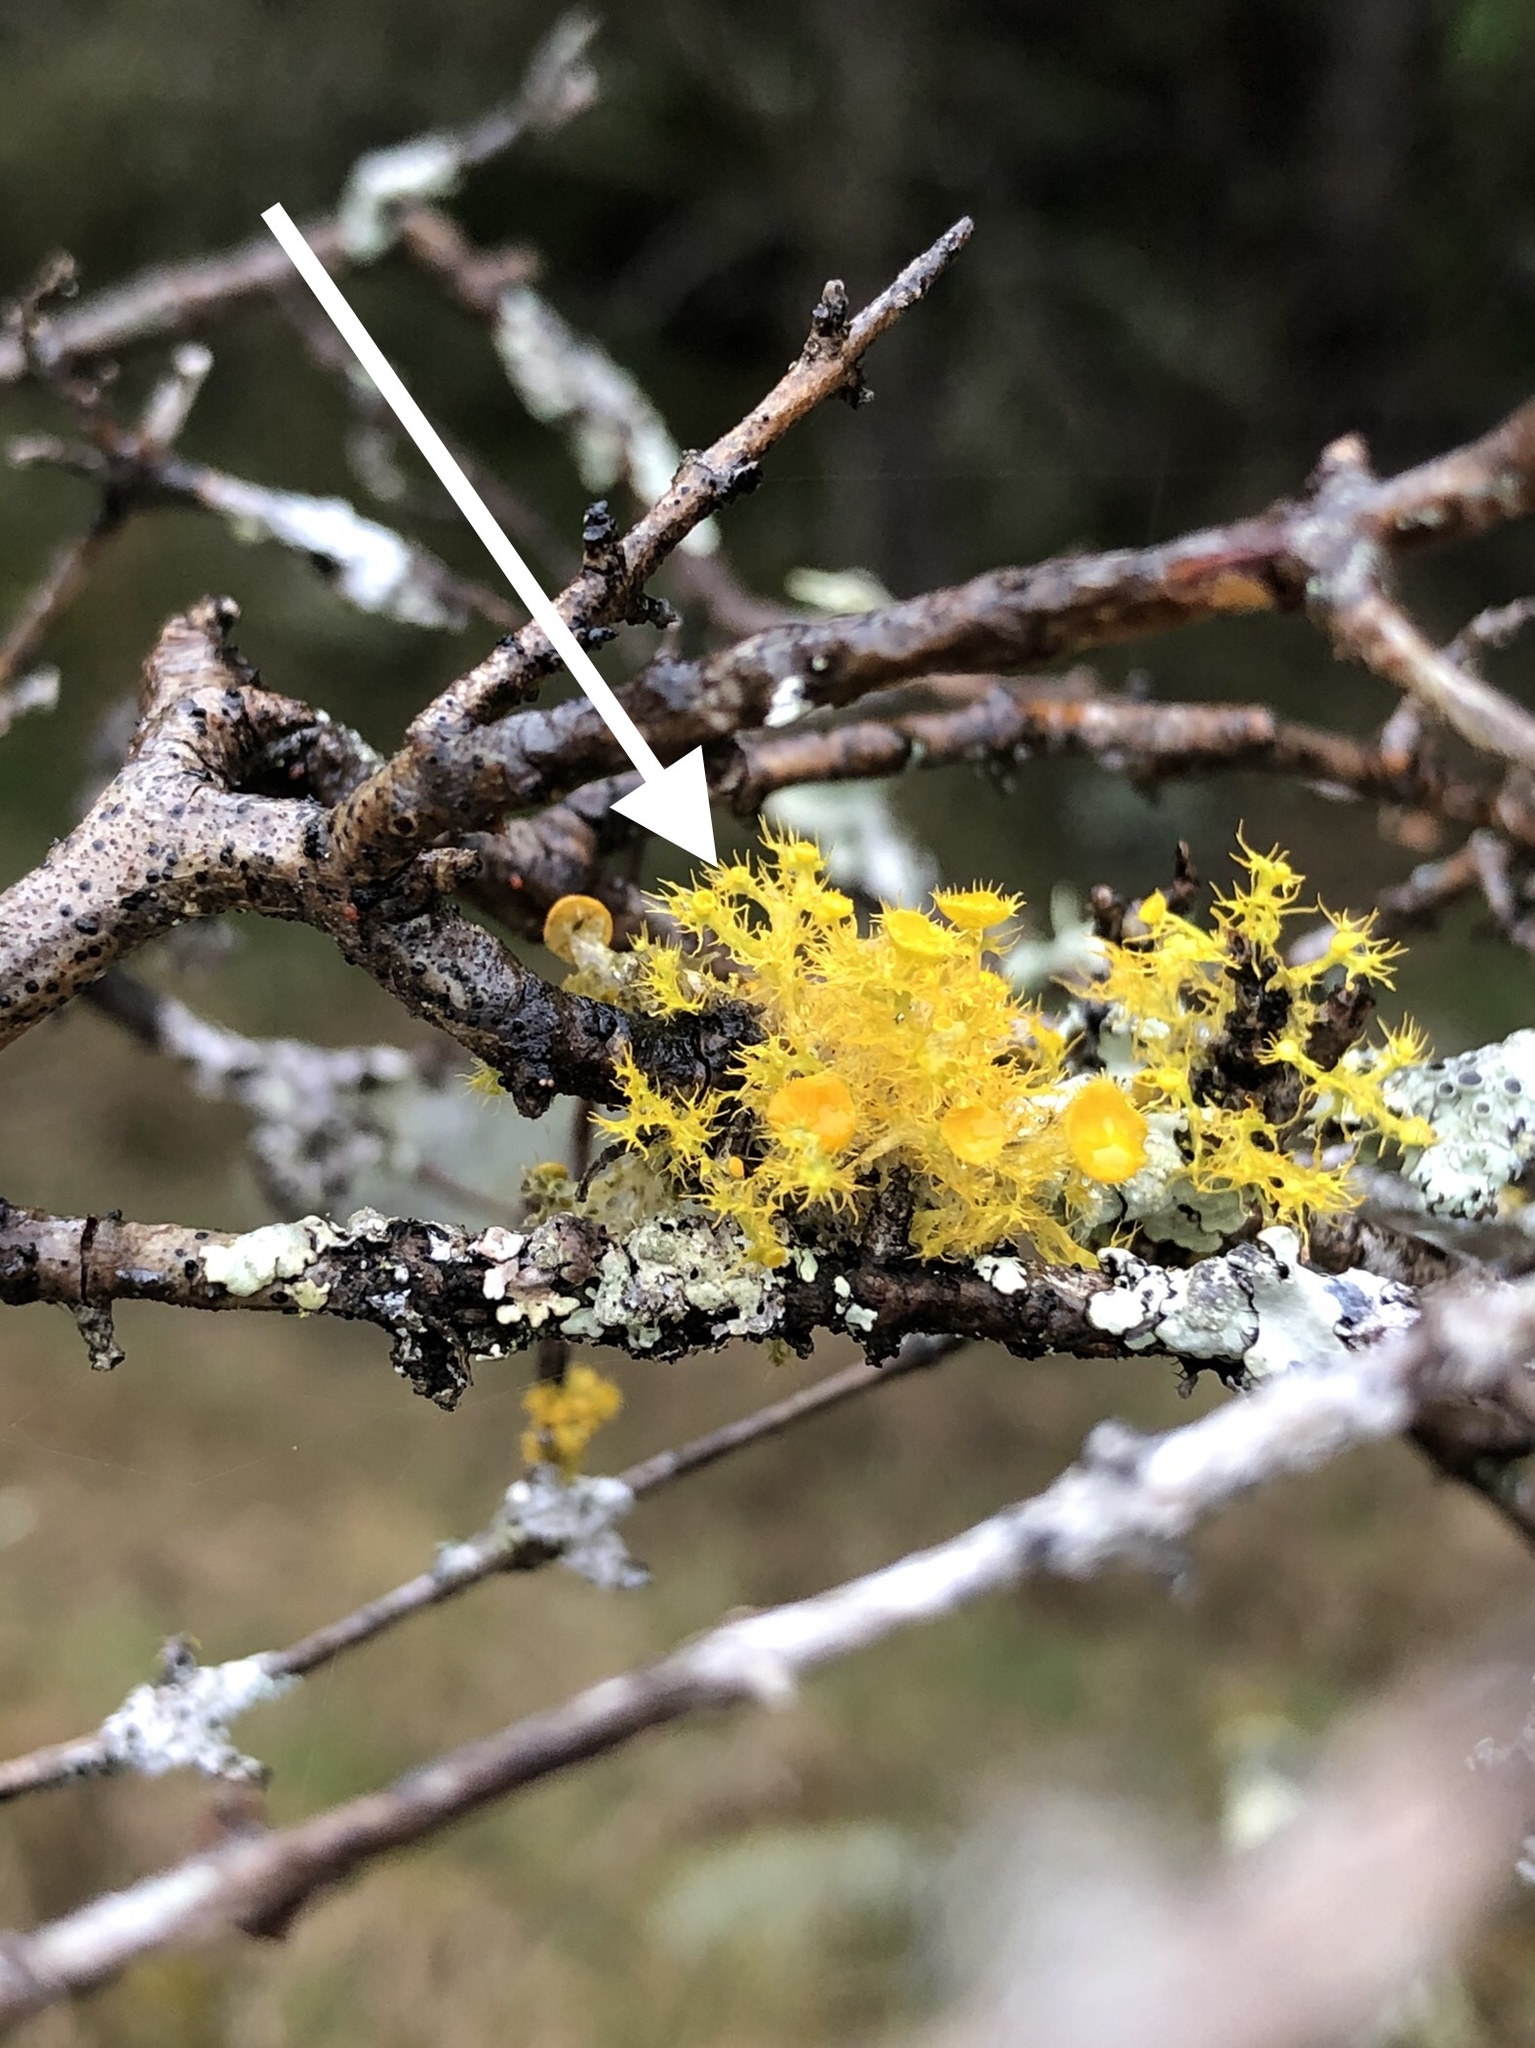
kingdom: Fungi
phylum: Ascomycota
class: Lecanoromycetes
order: Teloschistales
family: Teloschistaceae
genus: Niorma
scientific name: Niorma chrysophthalma
